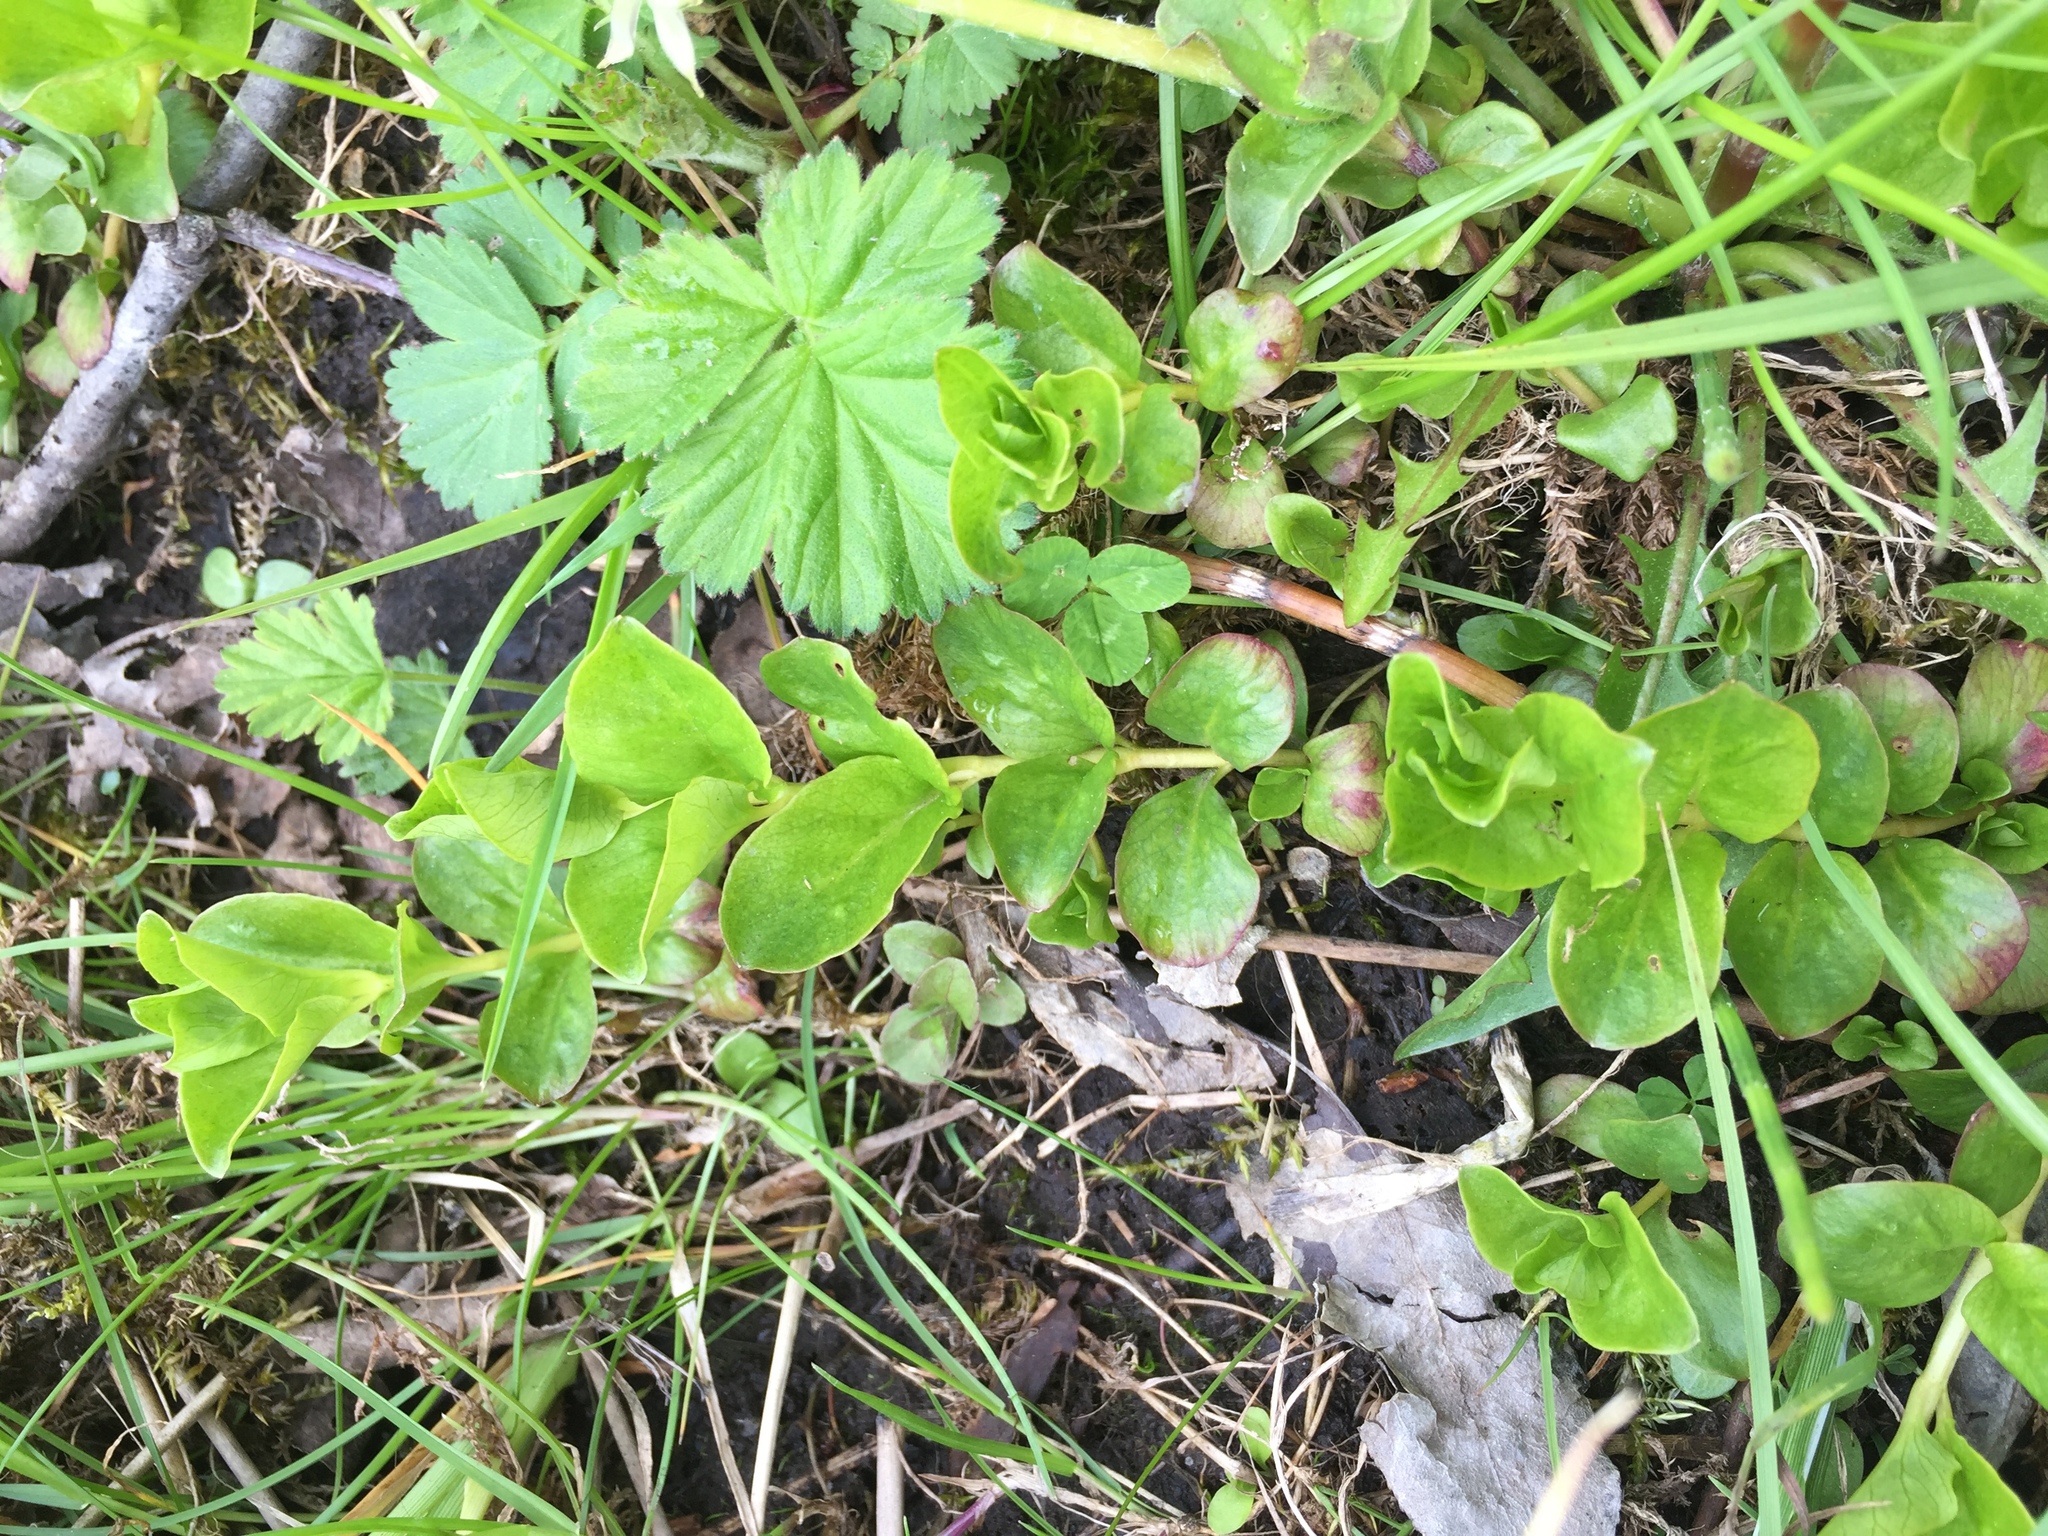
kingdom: Plantae
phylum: Tracheophyta
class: Magnoliopsida
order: Ericales
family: Primulaceae
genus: Lysimachia
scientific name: Lysimachia nummularia
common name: Moneywort
